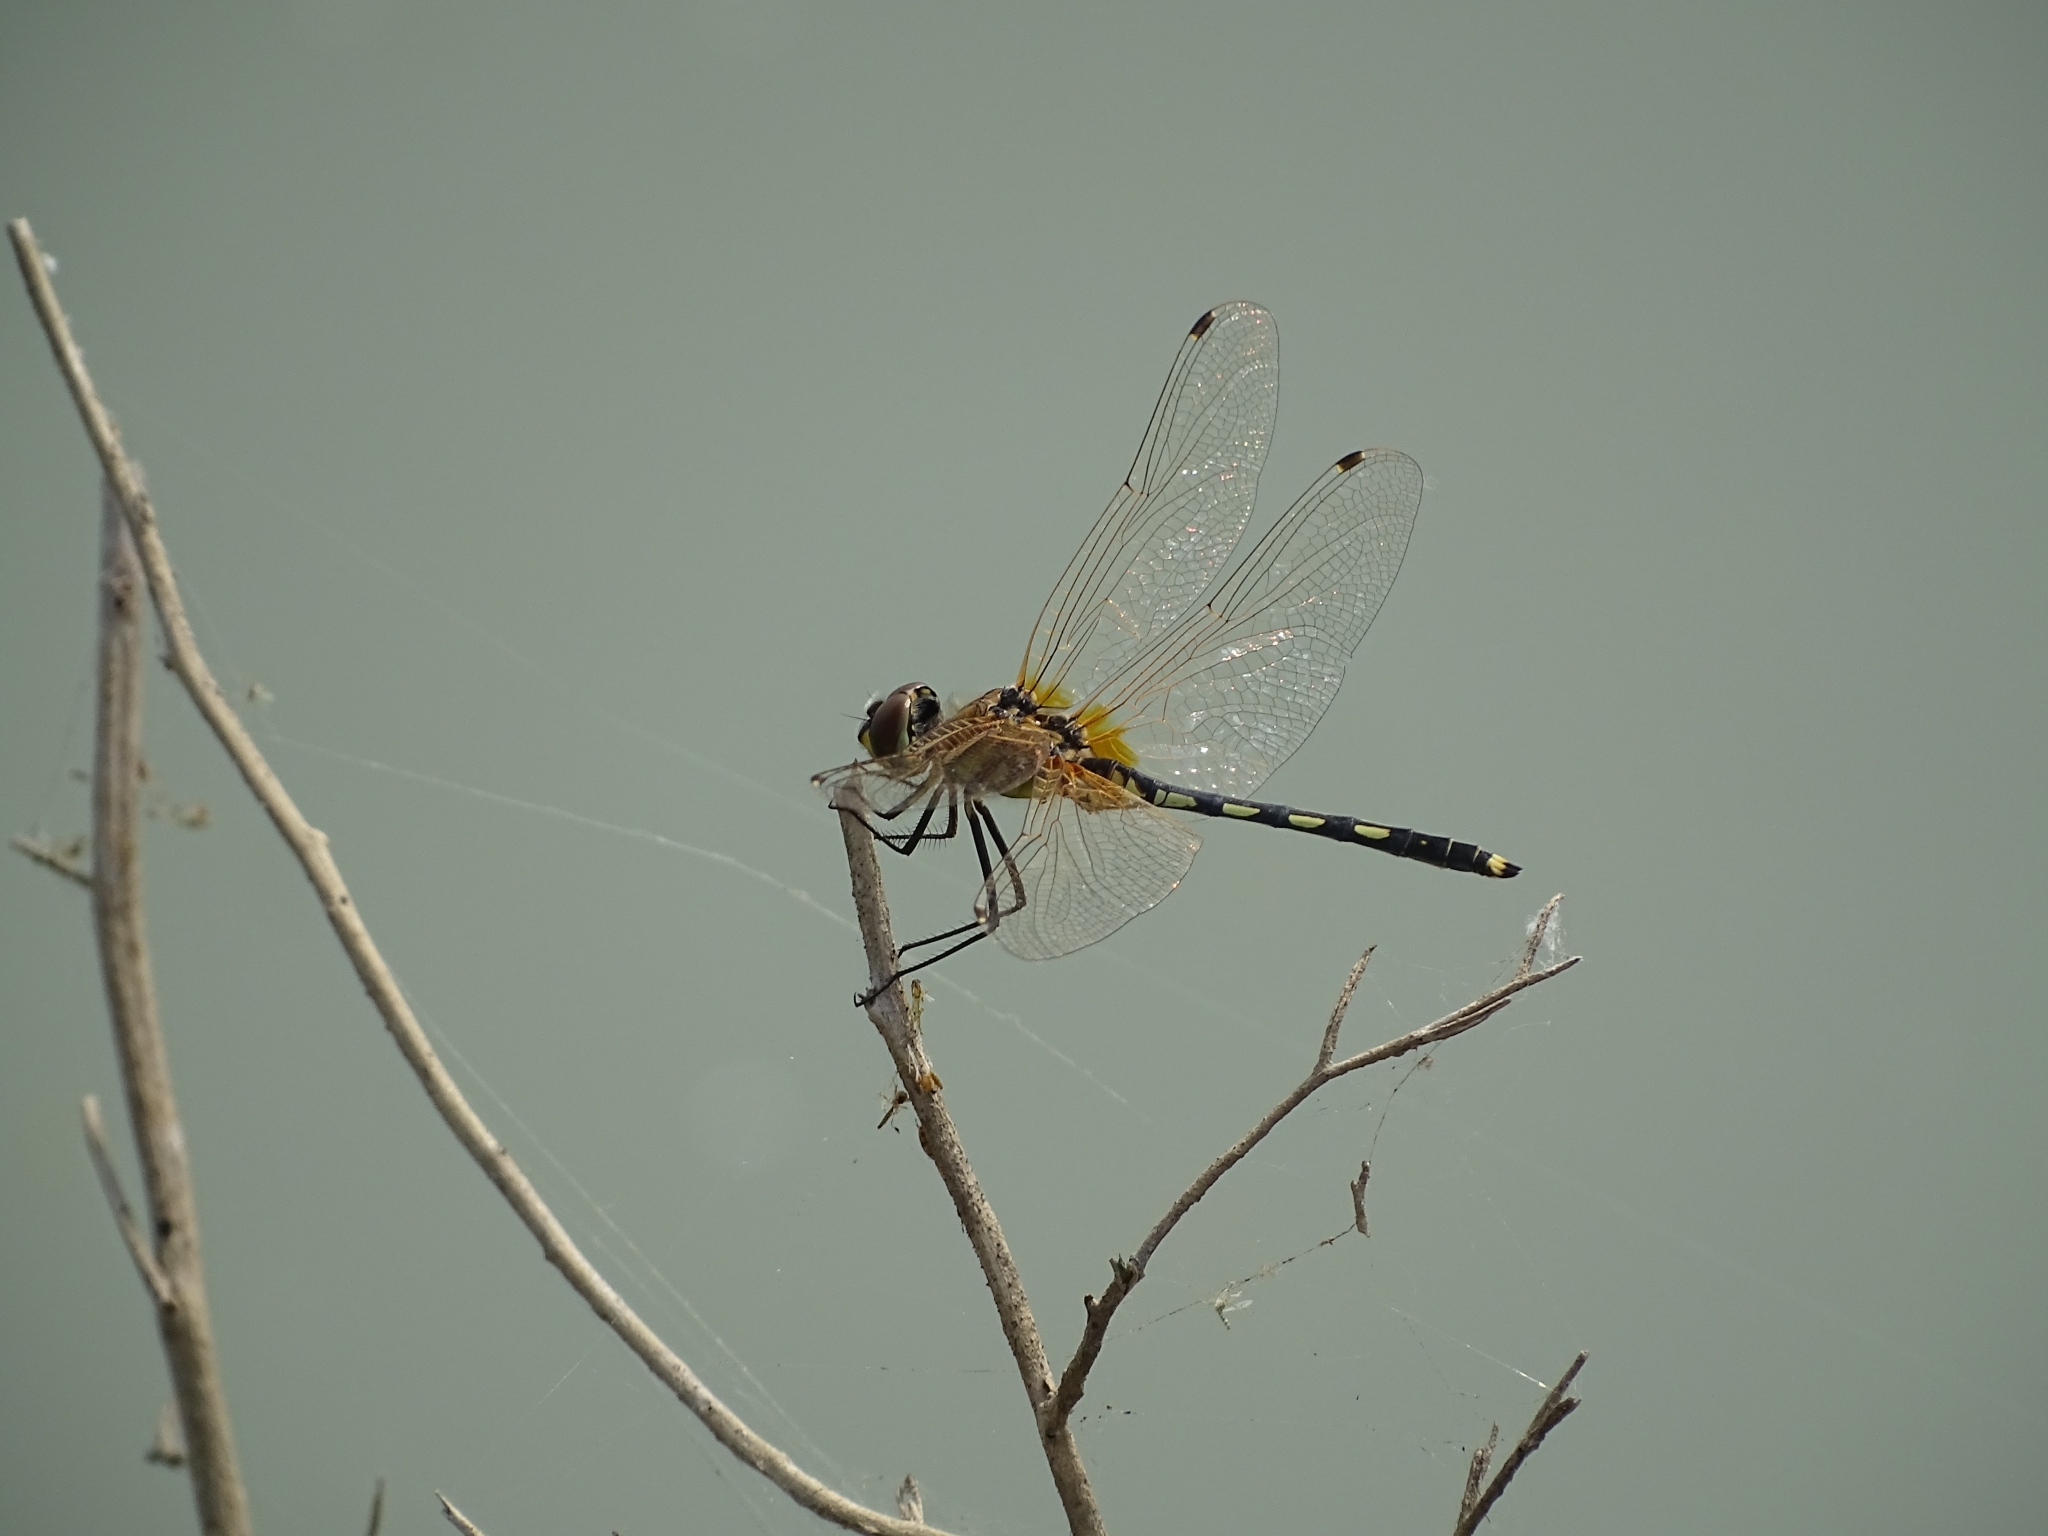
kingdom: Animalia
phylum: Arthropoda
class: Insecta
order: Odonata
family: Libellulidae
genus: Trithemis
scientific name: Trithemis pallidinervis
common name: Dancing dropwing
